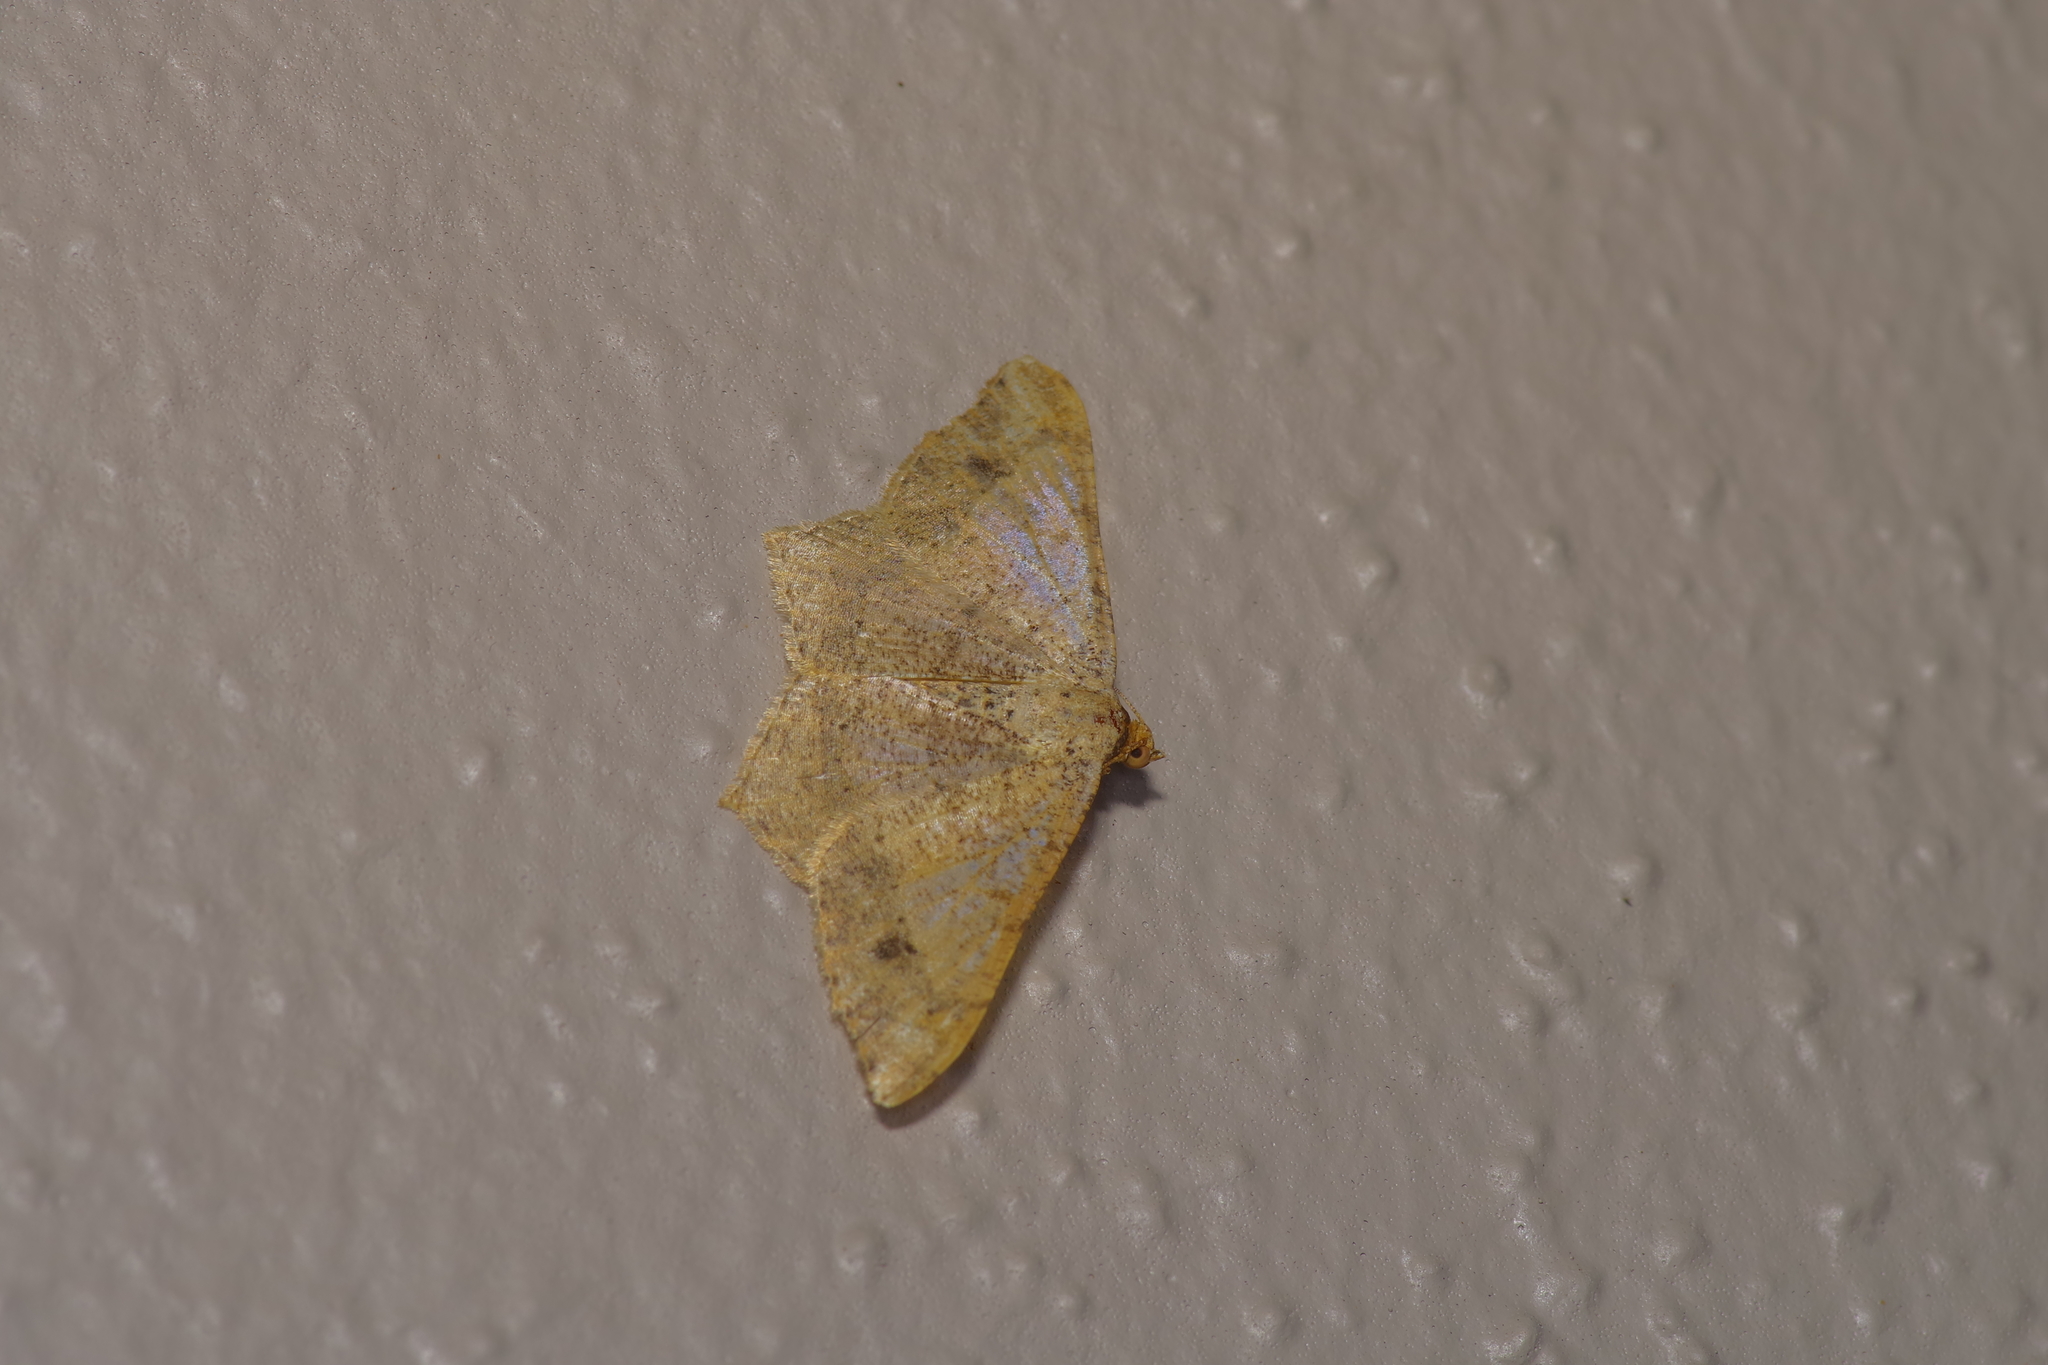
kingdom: Animalia
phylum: Arthropoda
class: Insecta
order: Lepidoptera
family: Geometridae
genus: Macaria
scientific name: Macaria abydata
